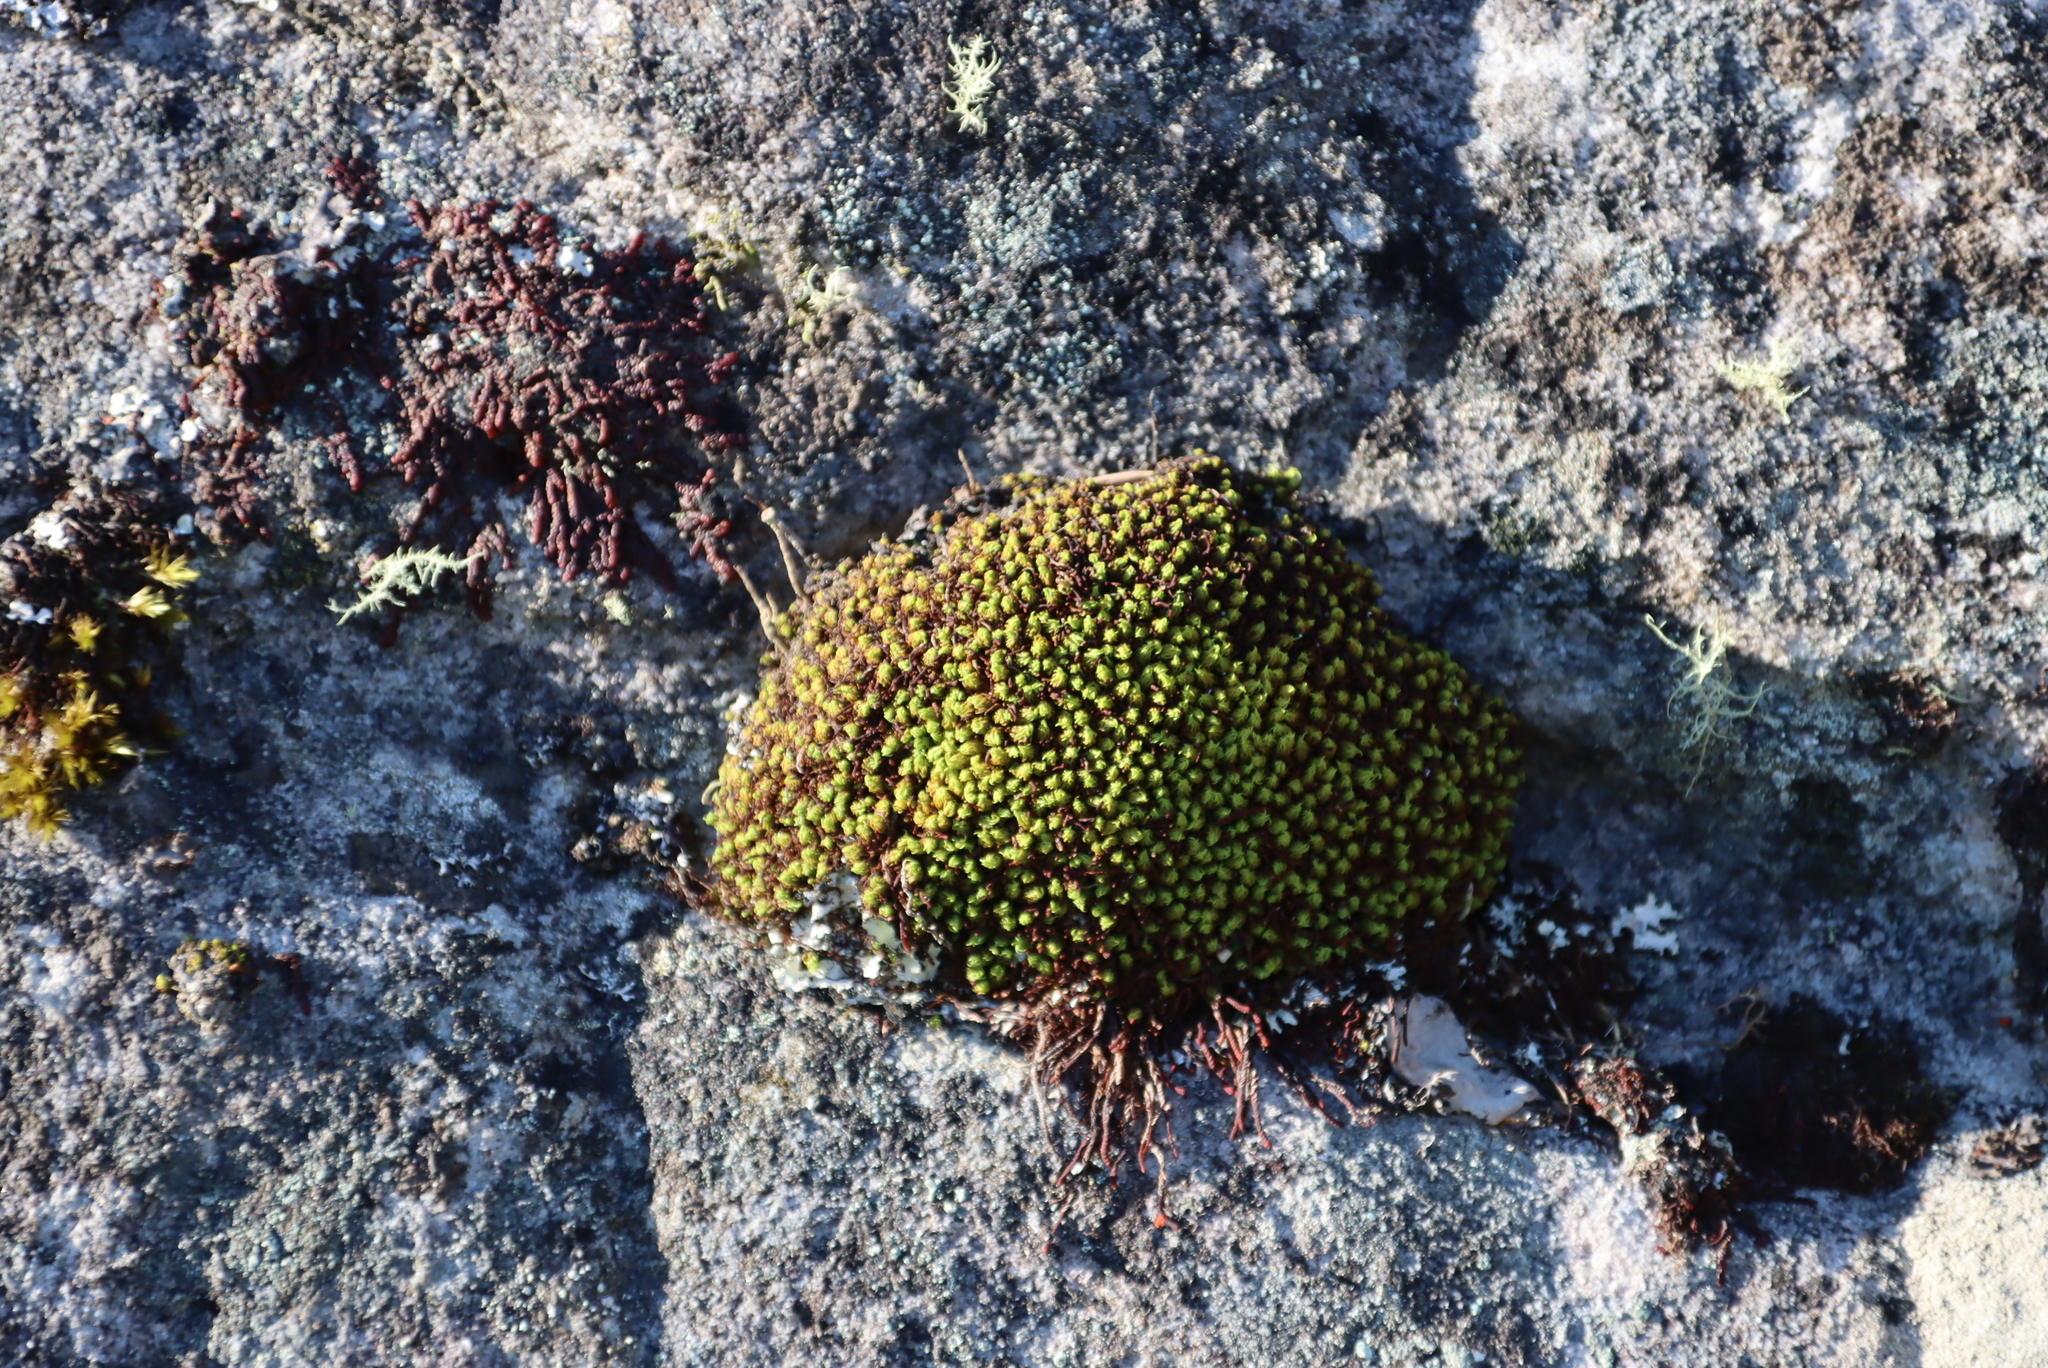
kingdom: Plantae
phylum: Bryophyta
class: Bryopsida
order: Dicranales
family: Hypodontiaceae
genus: Hypodontium
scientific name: Hypodontium pomiforme
